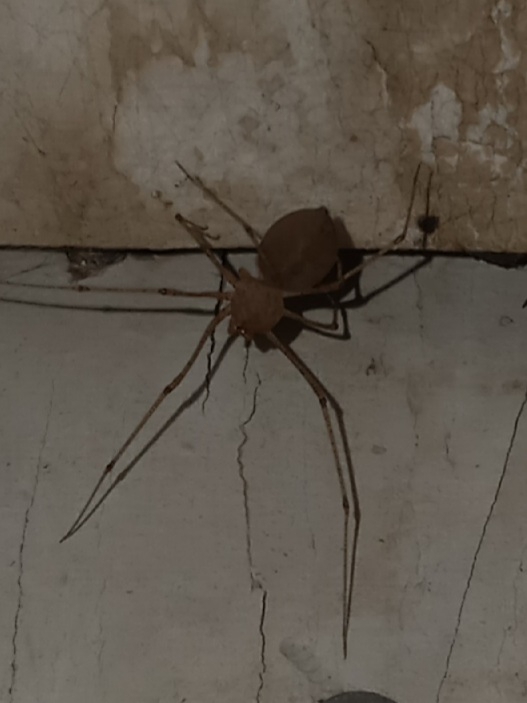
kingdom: Animalia
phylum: Arthropoda
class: Arachnida
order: Araneae
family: Scytodidae
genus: Scytodes
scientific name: Scytodes atlacoya
